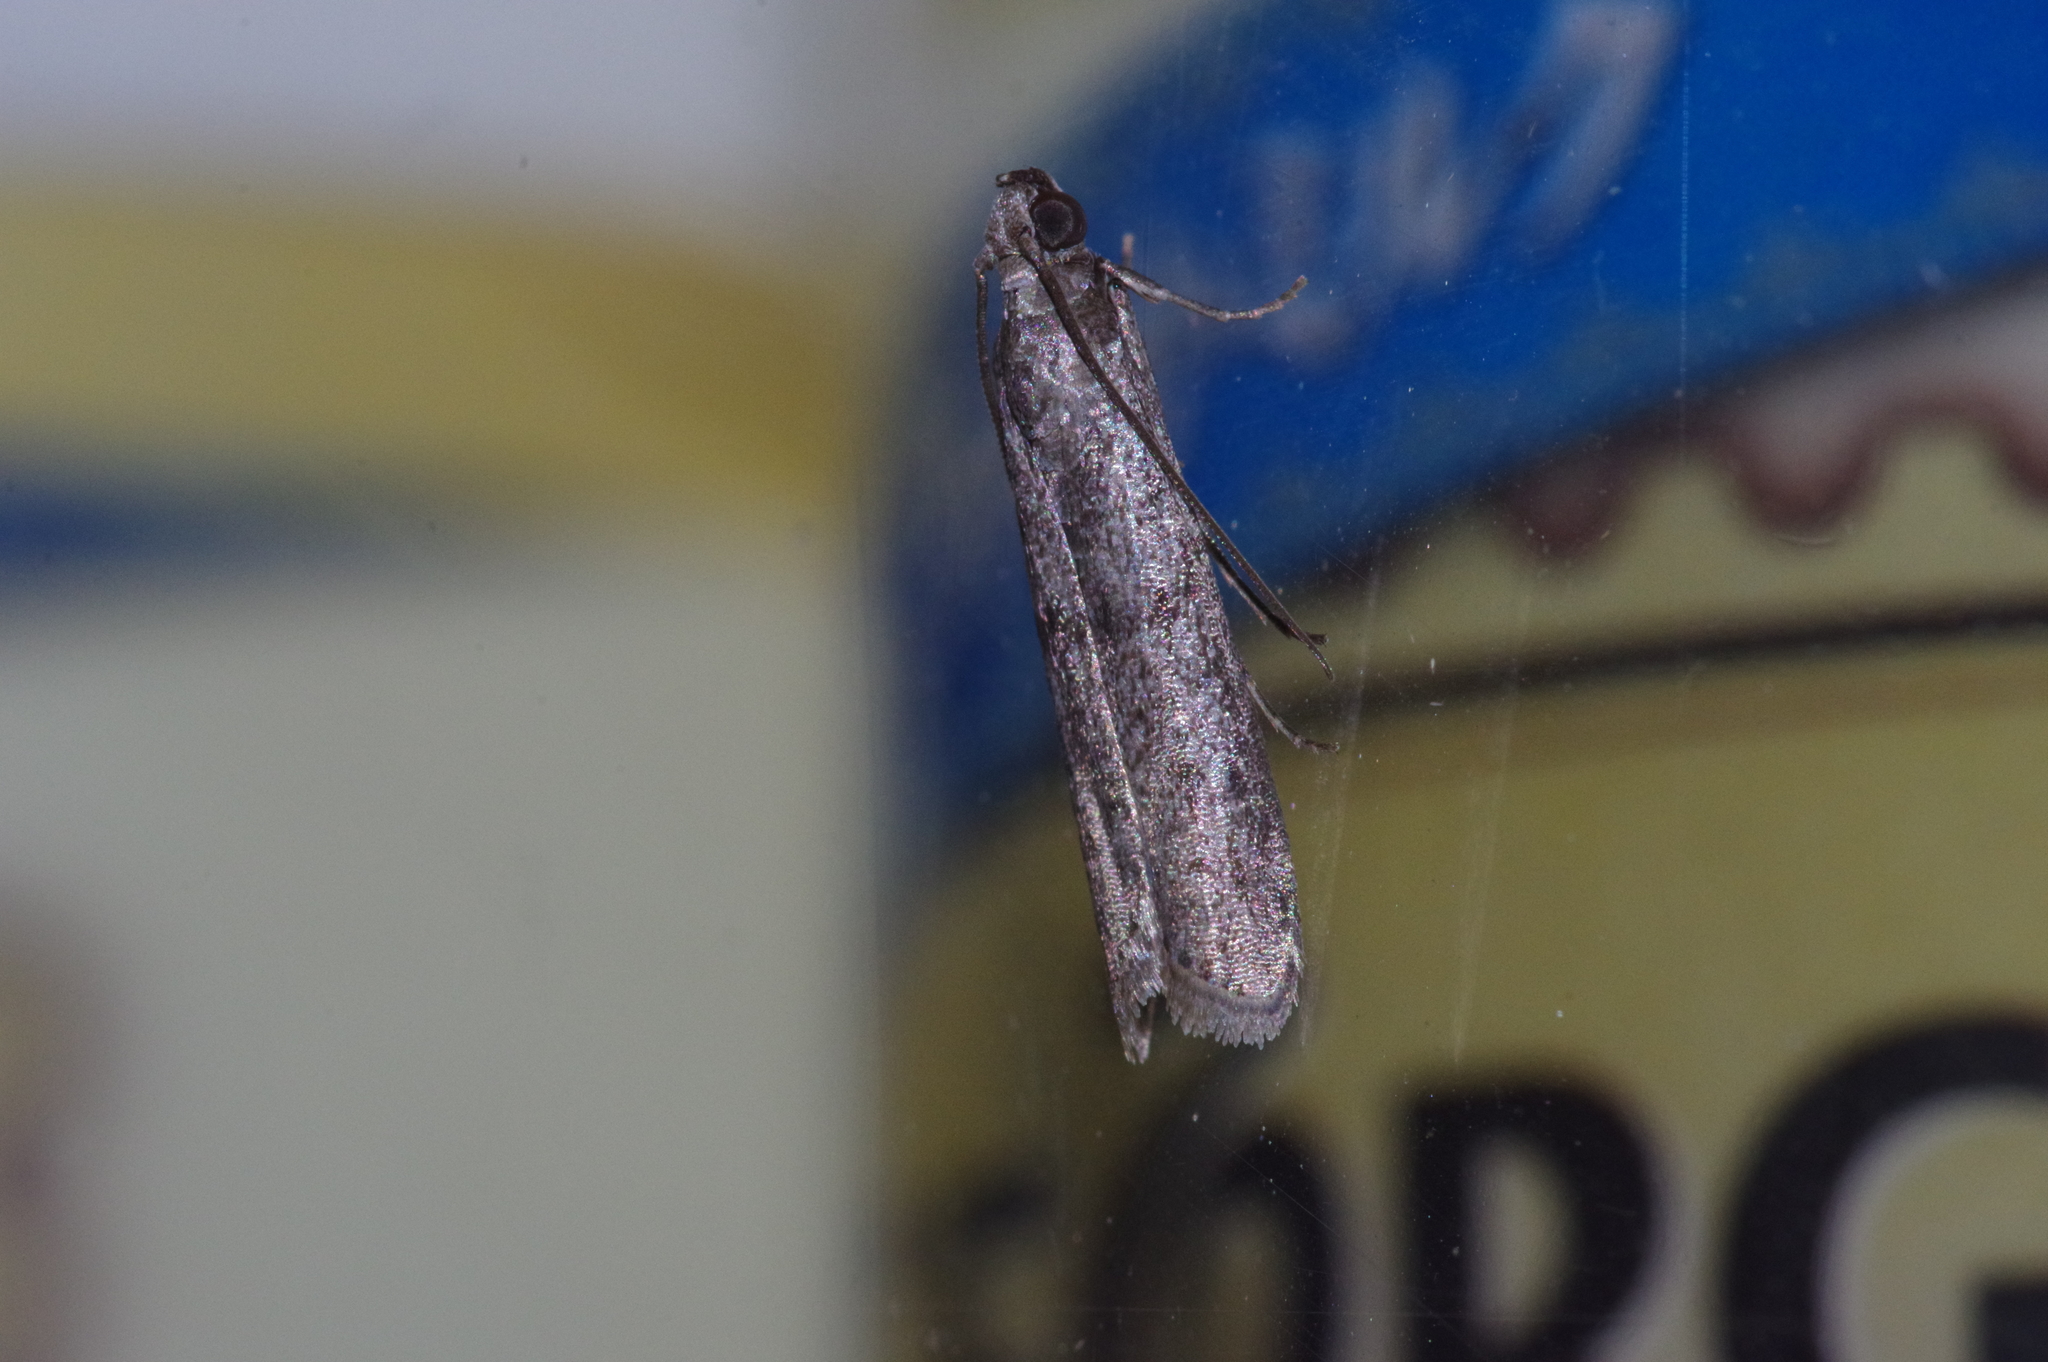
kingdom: Animalia
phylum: Arthropoda
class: Insecta
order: Lepidoptera
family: Pyralidae
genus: Glyptoteles
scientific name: Glyptoteles leucacrinella
